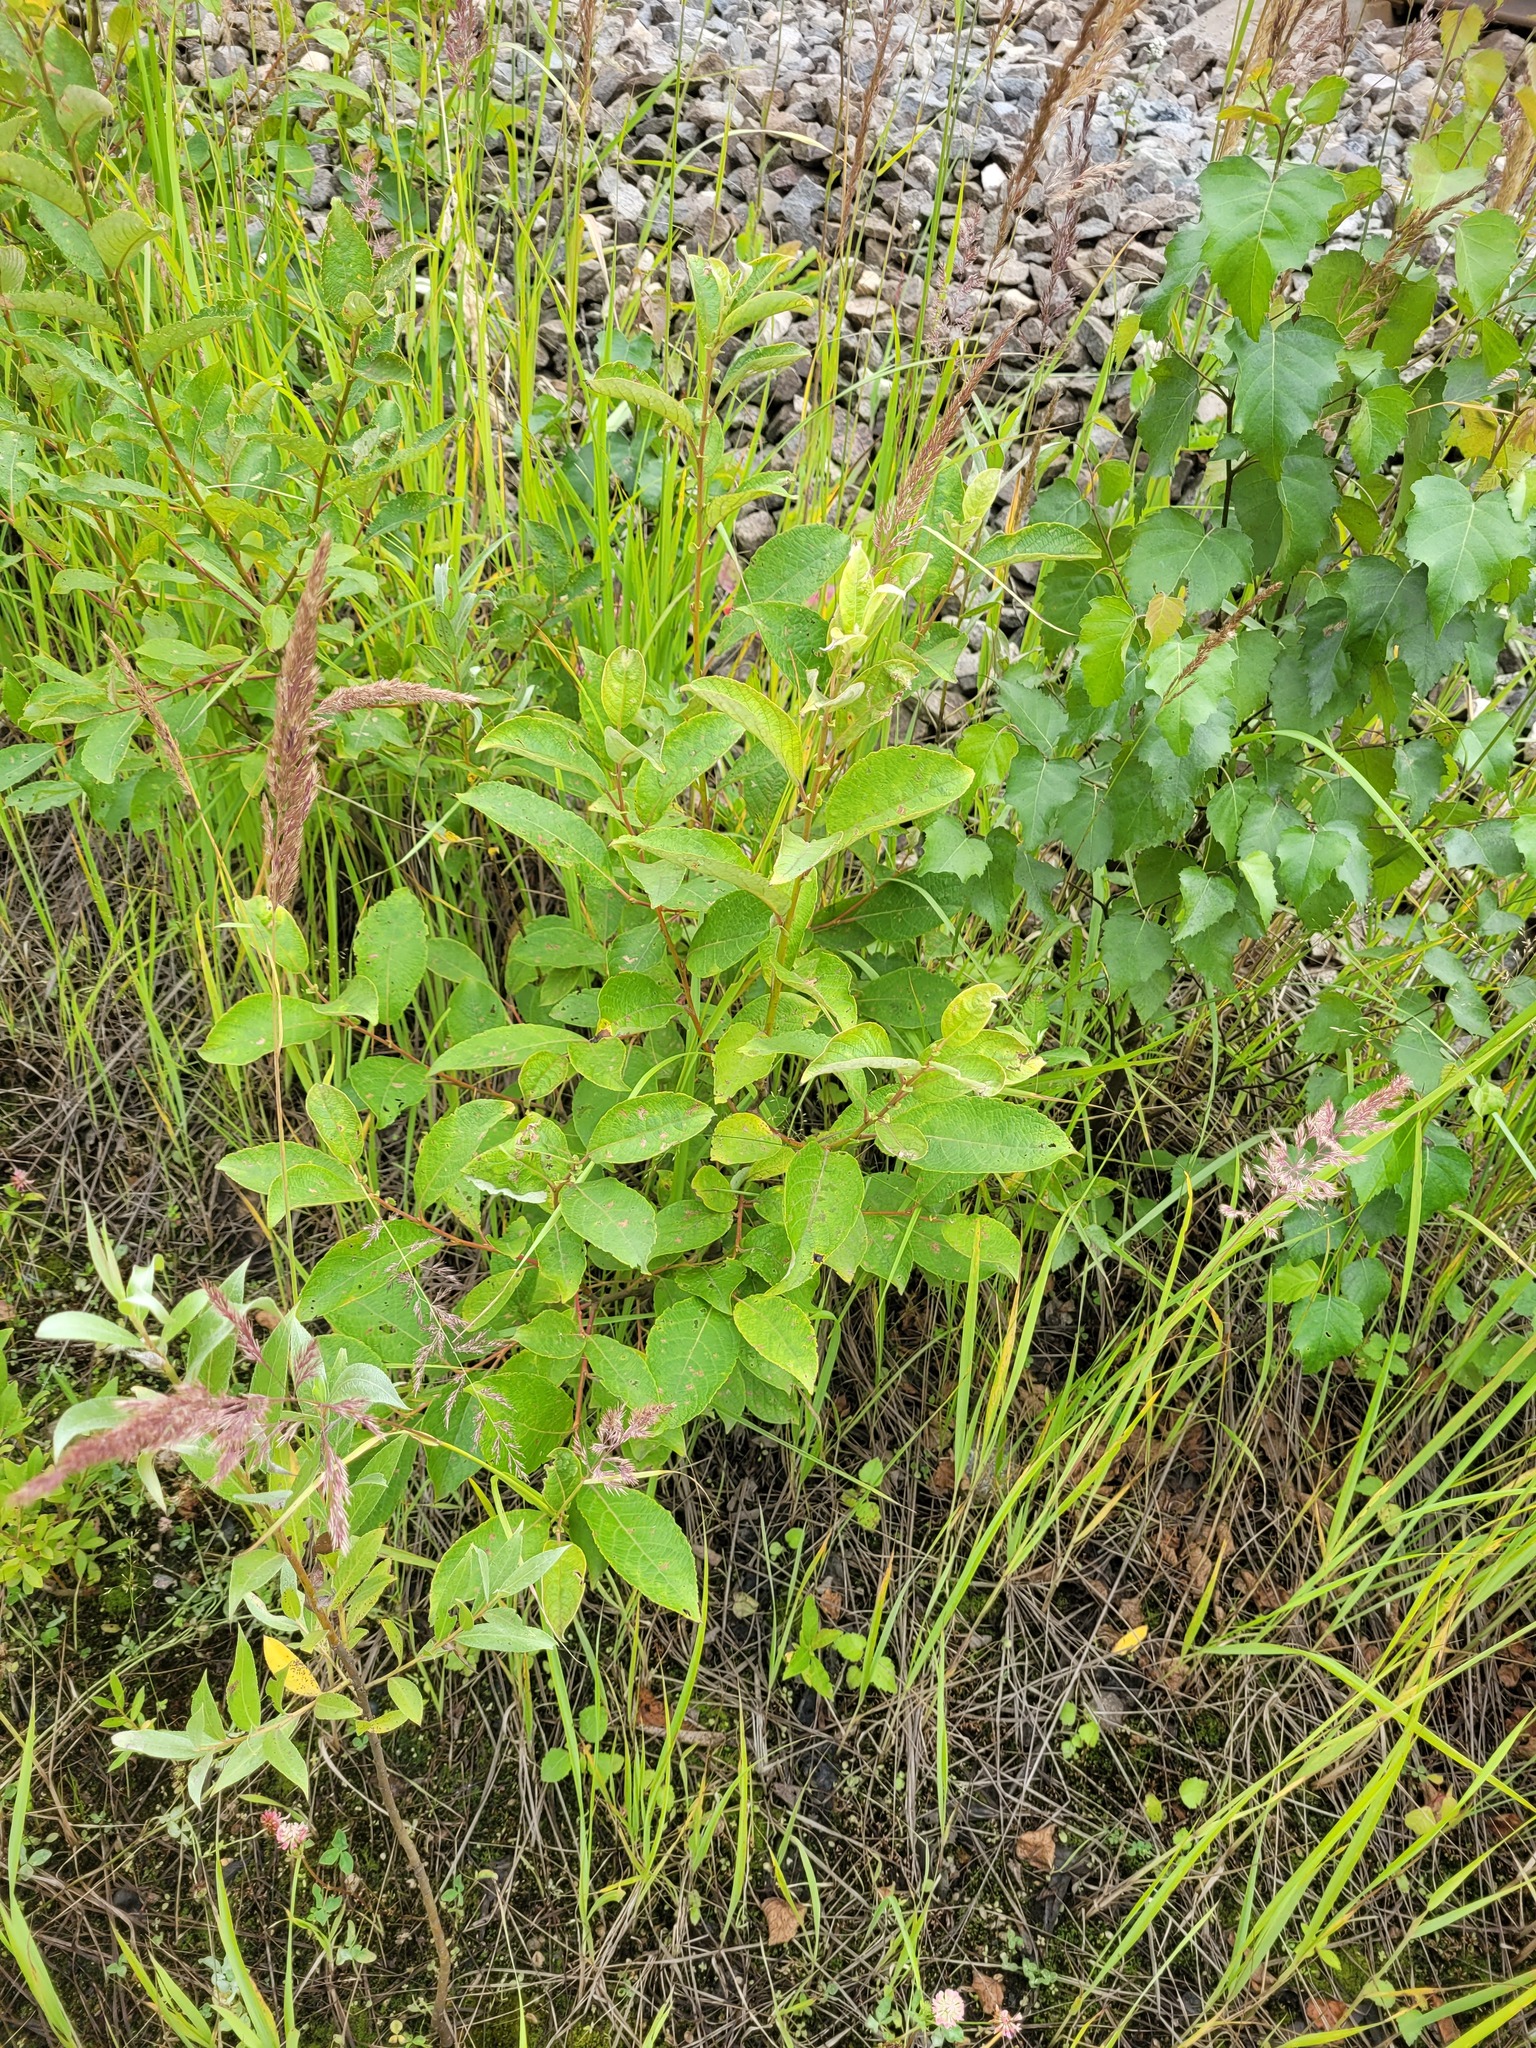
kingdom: Plantae
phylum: Tracheophyta
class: Magnoliopsida
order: Malpighiales
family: Salicaceae
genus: Salix
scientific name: Salix caprea
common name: Goat willow
